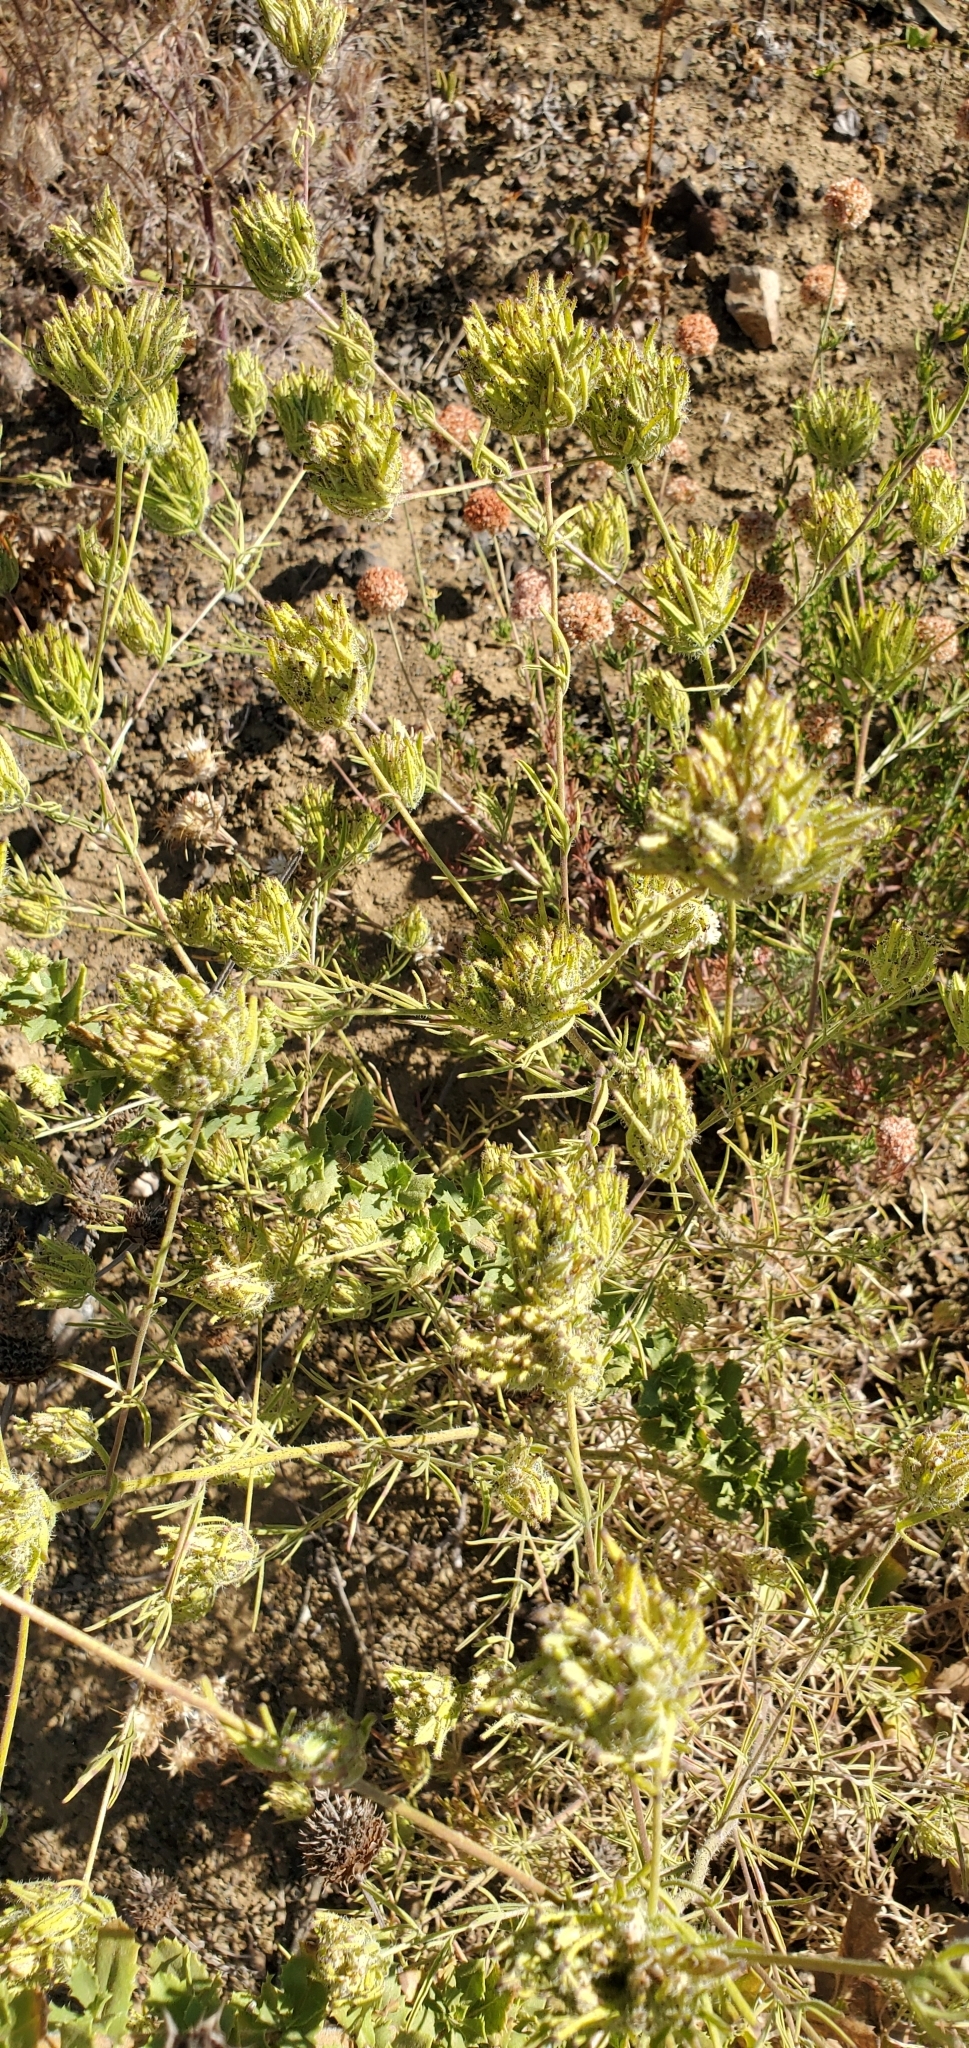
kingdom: Plantae
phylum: Tracheophyta
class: Magnoliopsida
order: Lamiales
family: Orobanchaceae
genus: Cordylanthus
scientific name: Cordylanthus rigidus
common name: Stiff-branch bird's-beak
